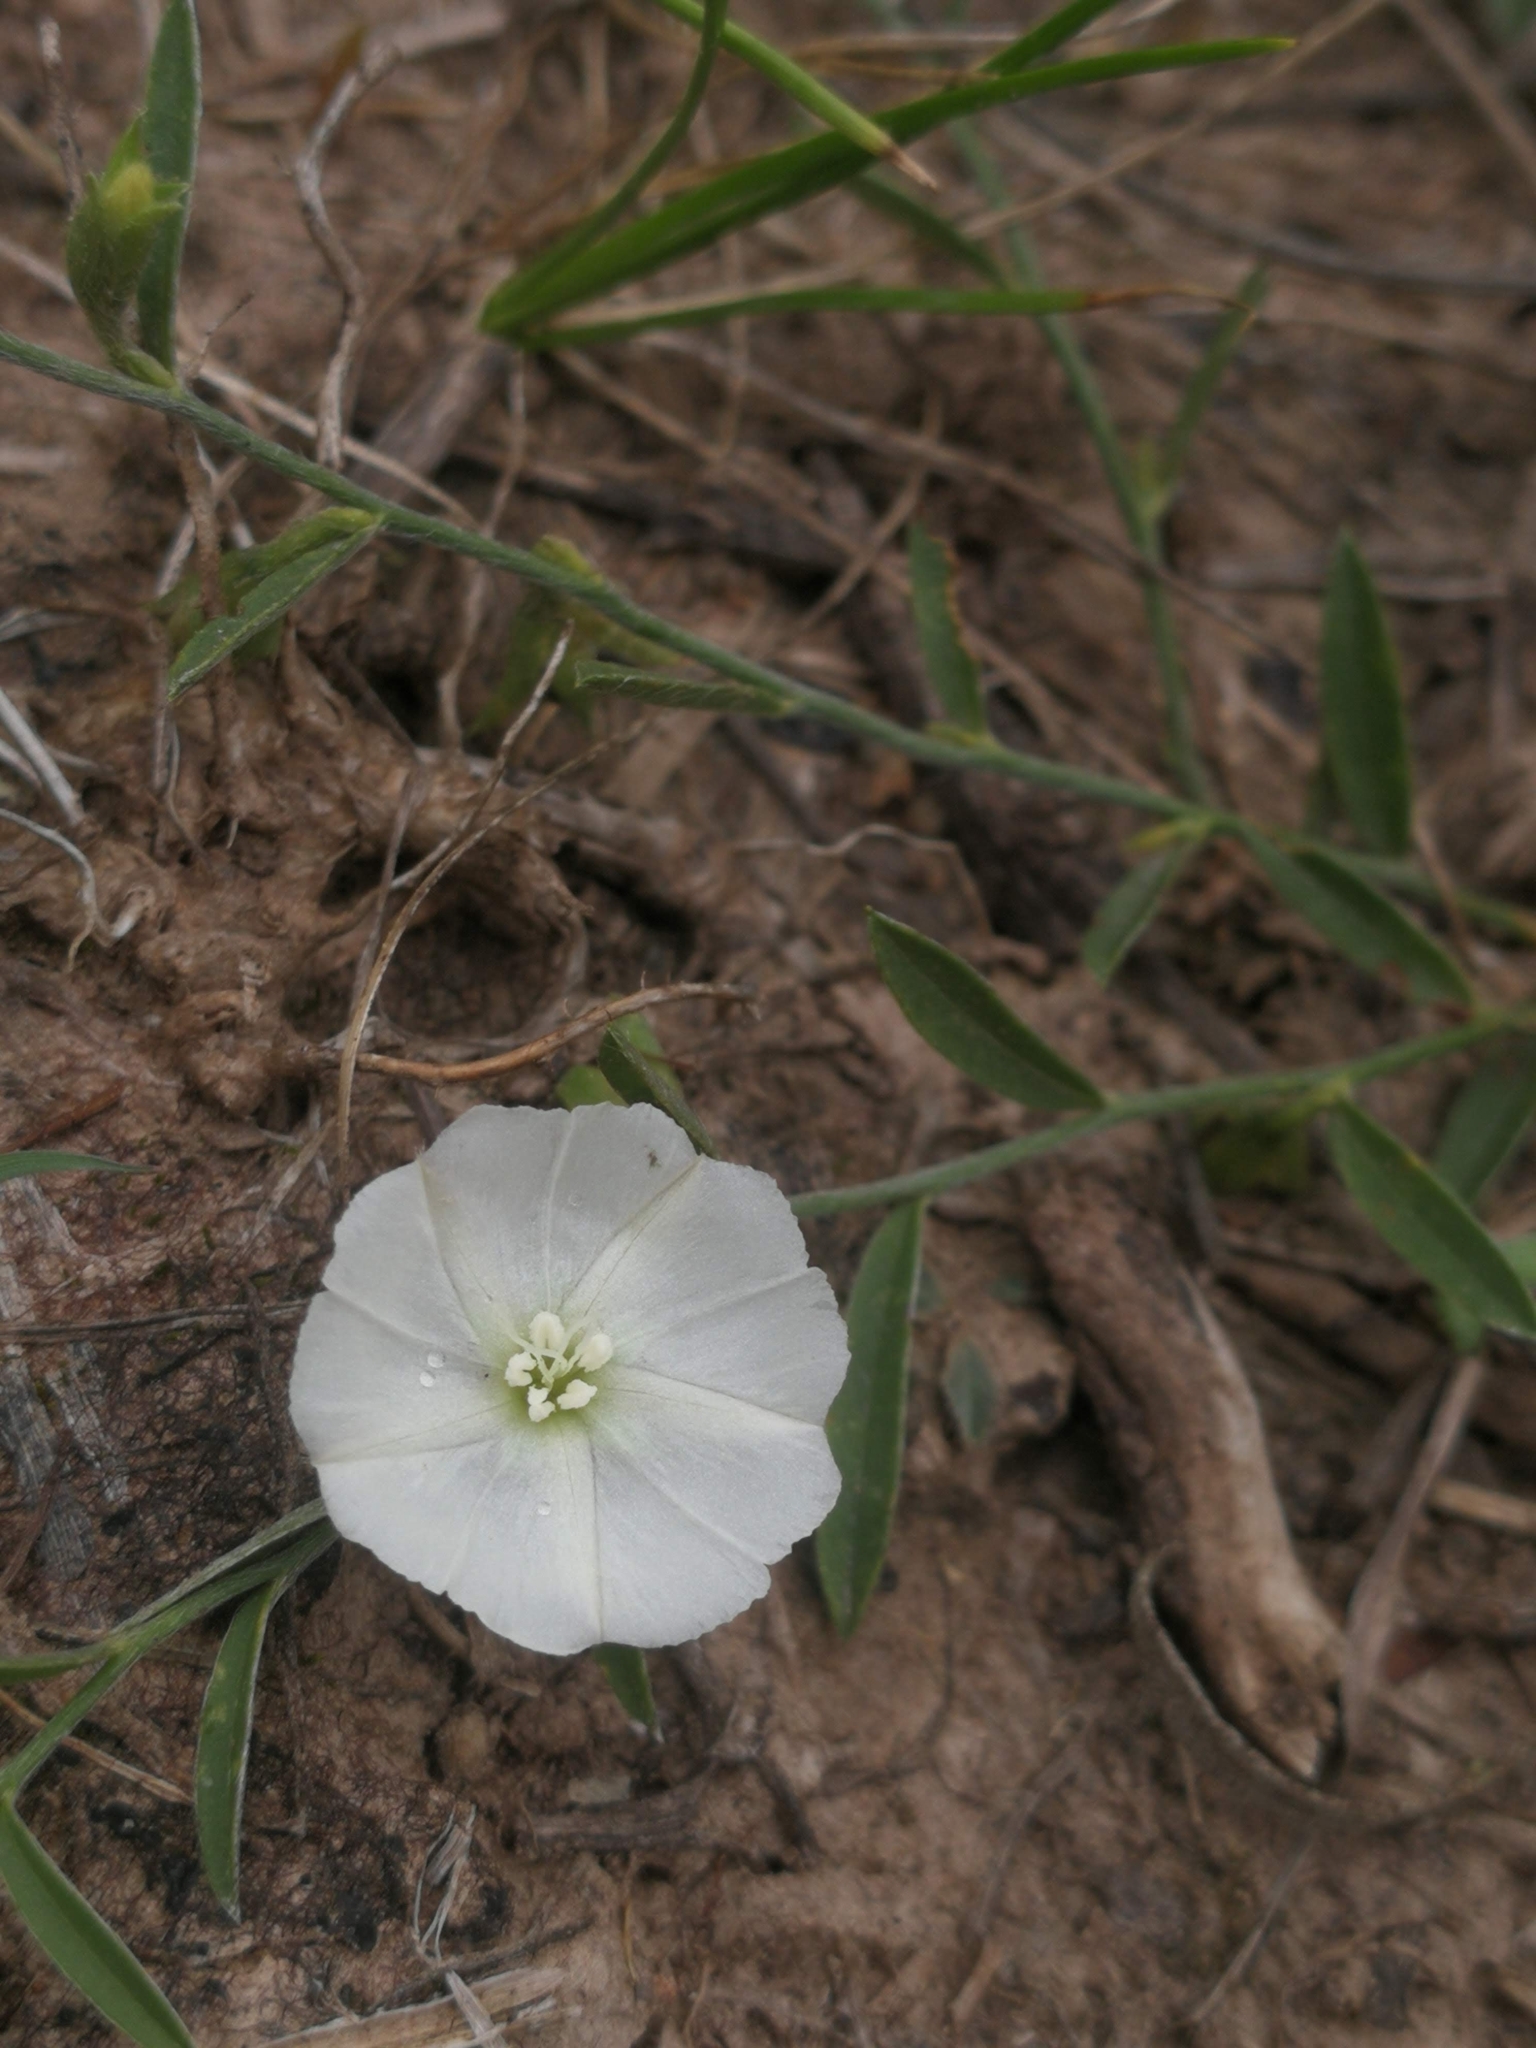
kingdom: Plantae
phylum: Tracheophyta
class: Magnoliopsida
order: Solanales
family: Convolvulaceae
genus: Evolvulus
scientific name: Evolvulus sericeus
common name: Blue dots
